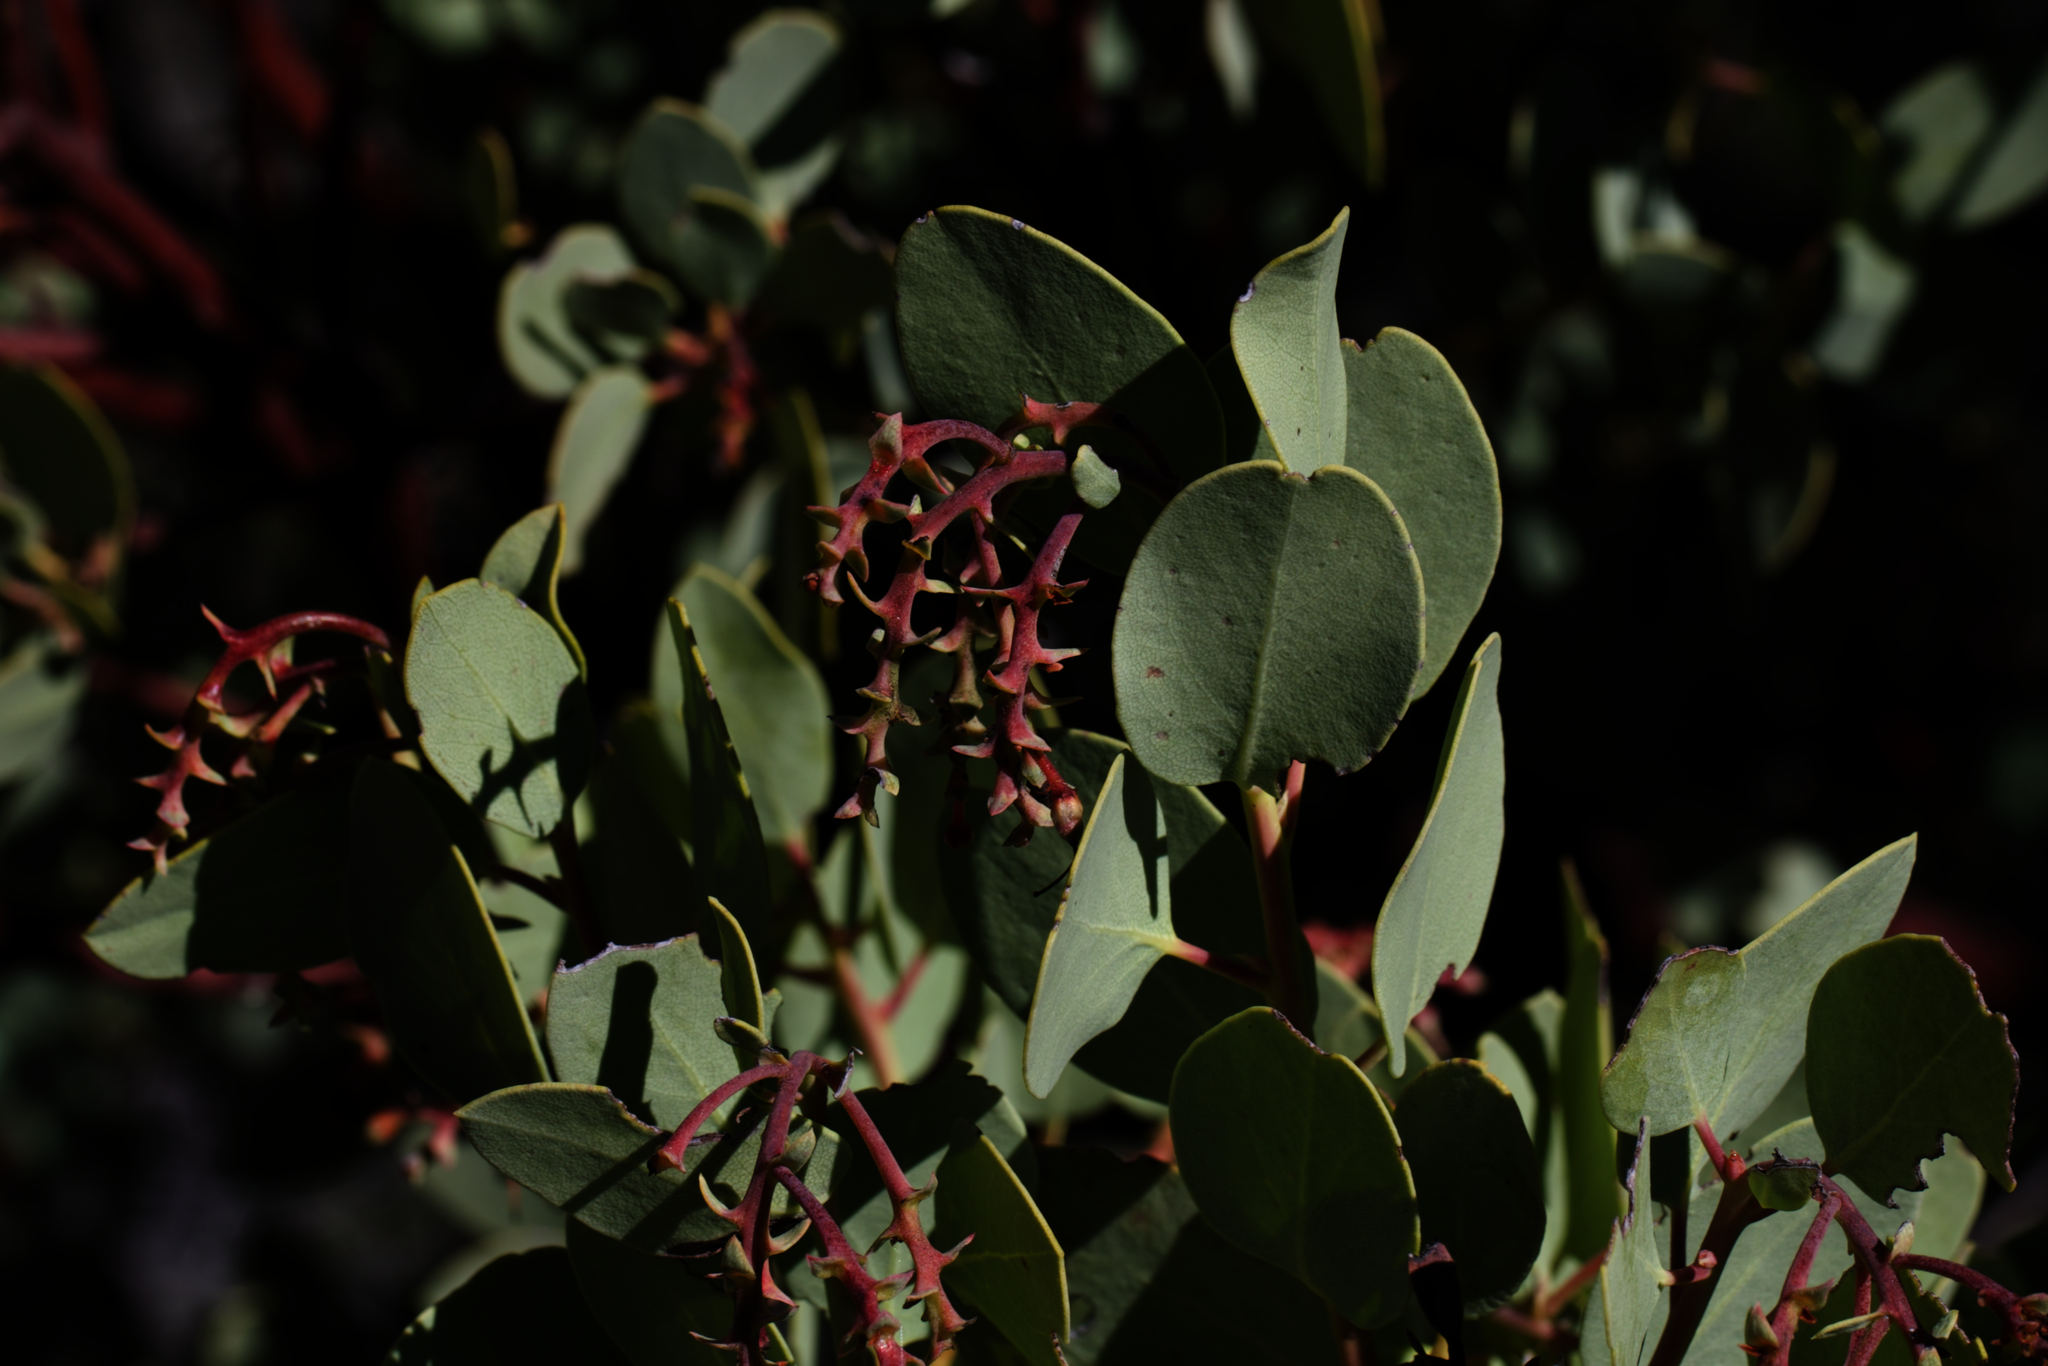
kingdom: Plantae
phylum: Tracheophyta
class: Magnoliopsida
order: Ericales
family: Ericaceae
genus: Arctostaphylos
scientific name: Arctostaphylos glauca
